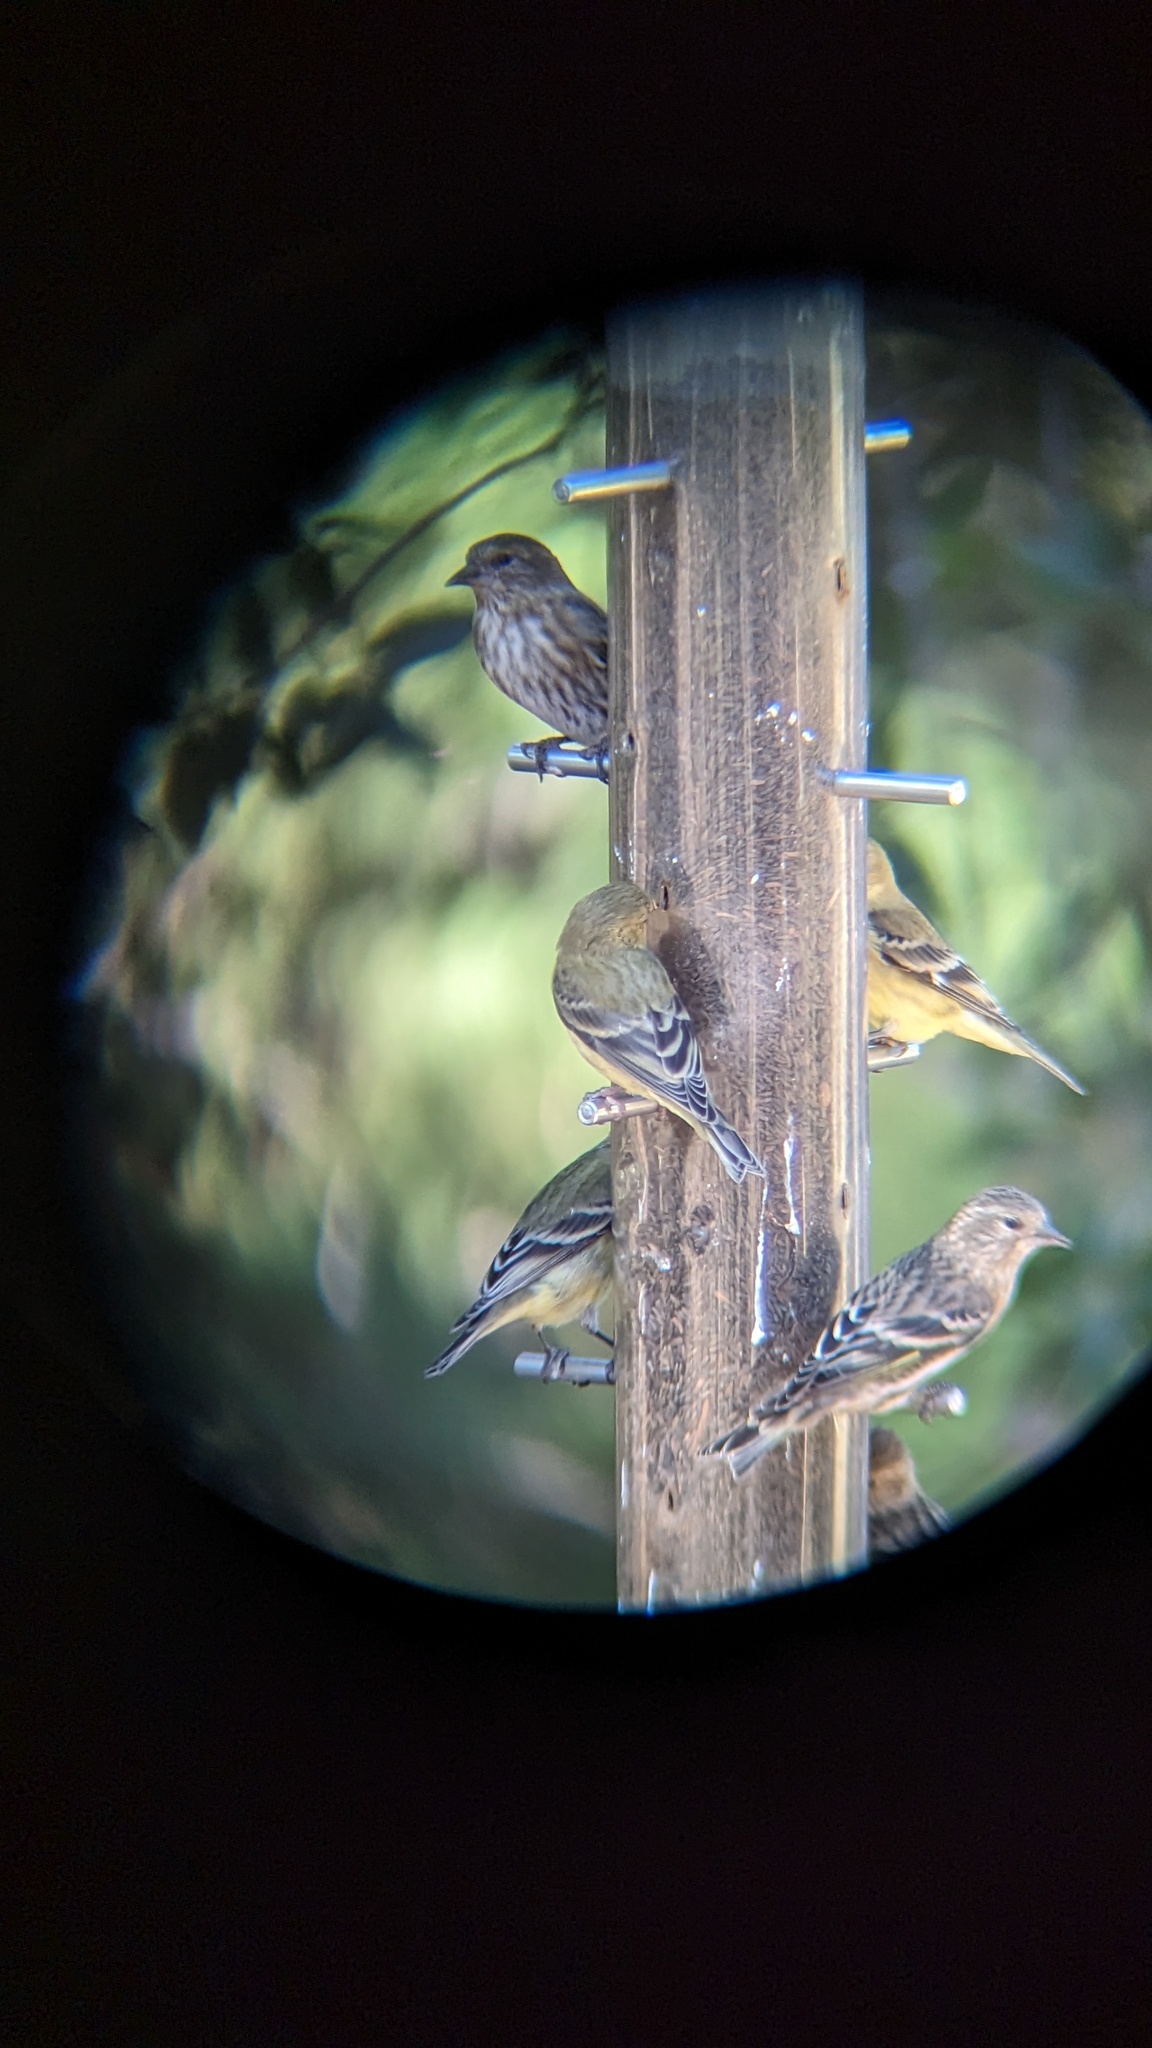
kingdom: Animalia
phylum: Chordata
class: Aves
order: Passeriformes
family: Fringillidae
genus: Spinus
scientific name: Spinus pinus
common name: Pine siskin
